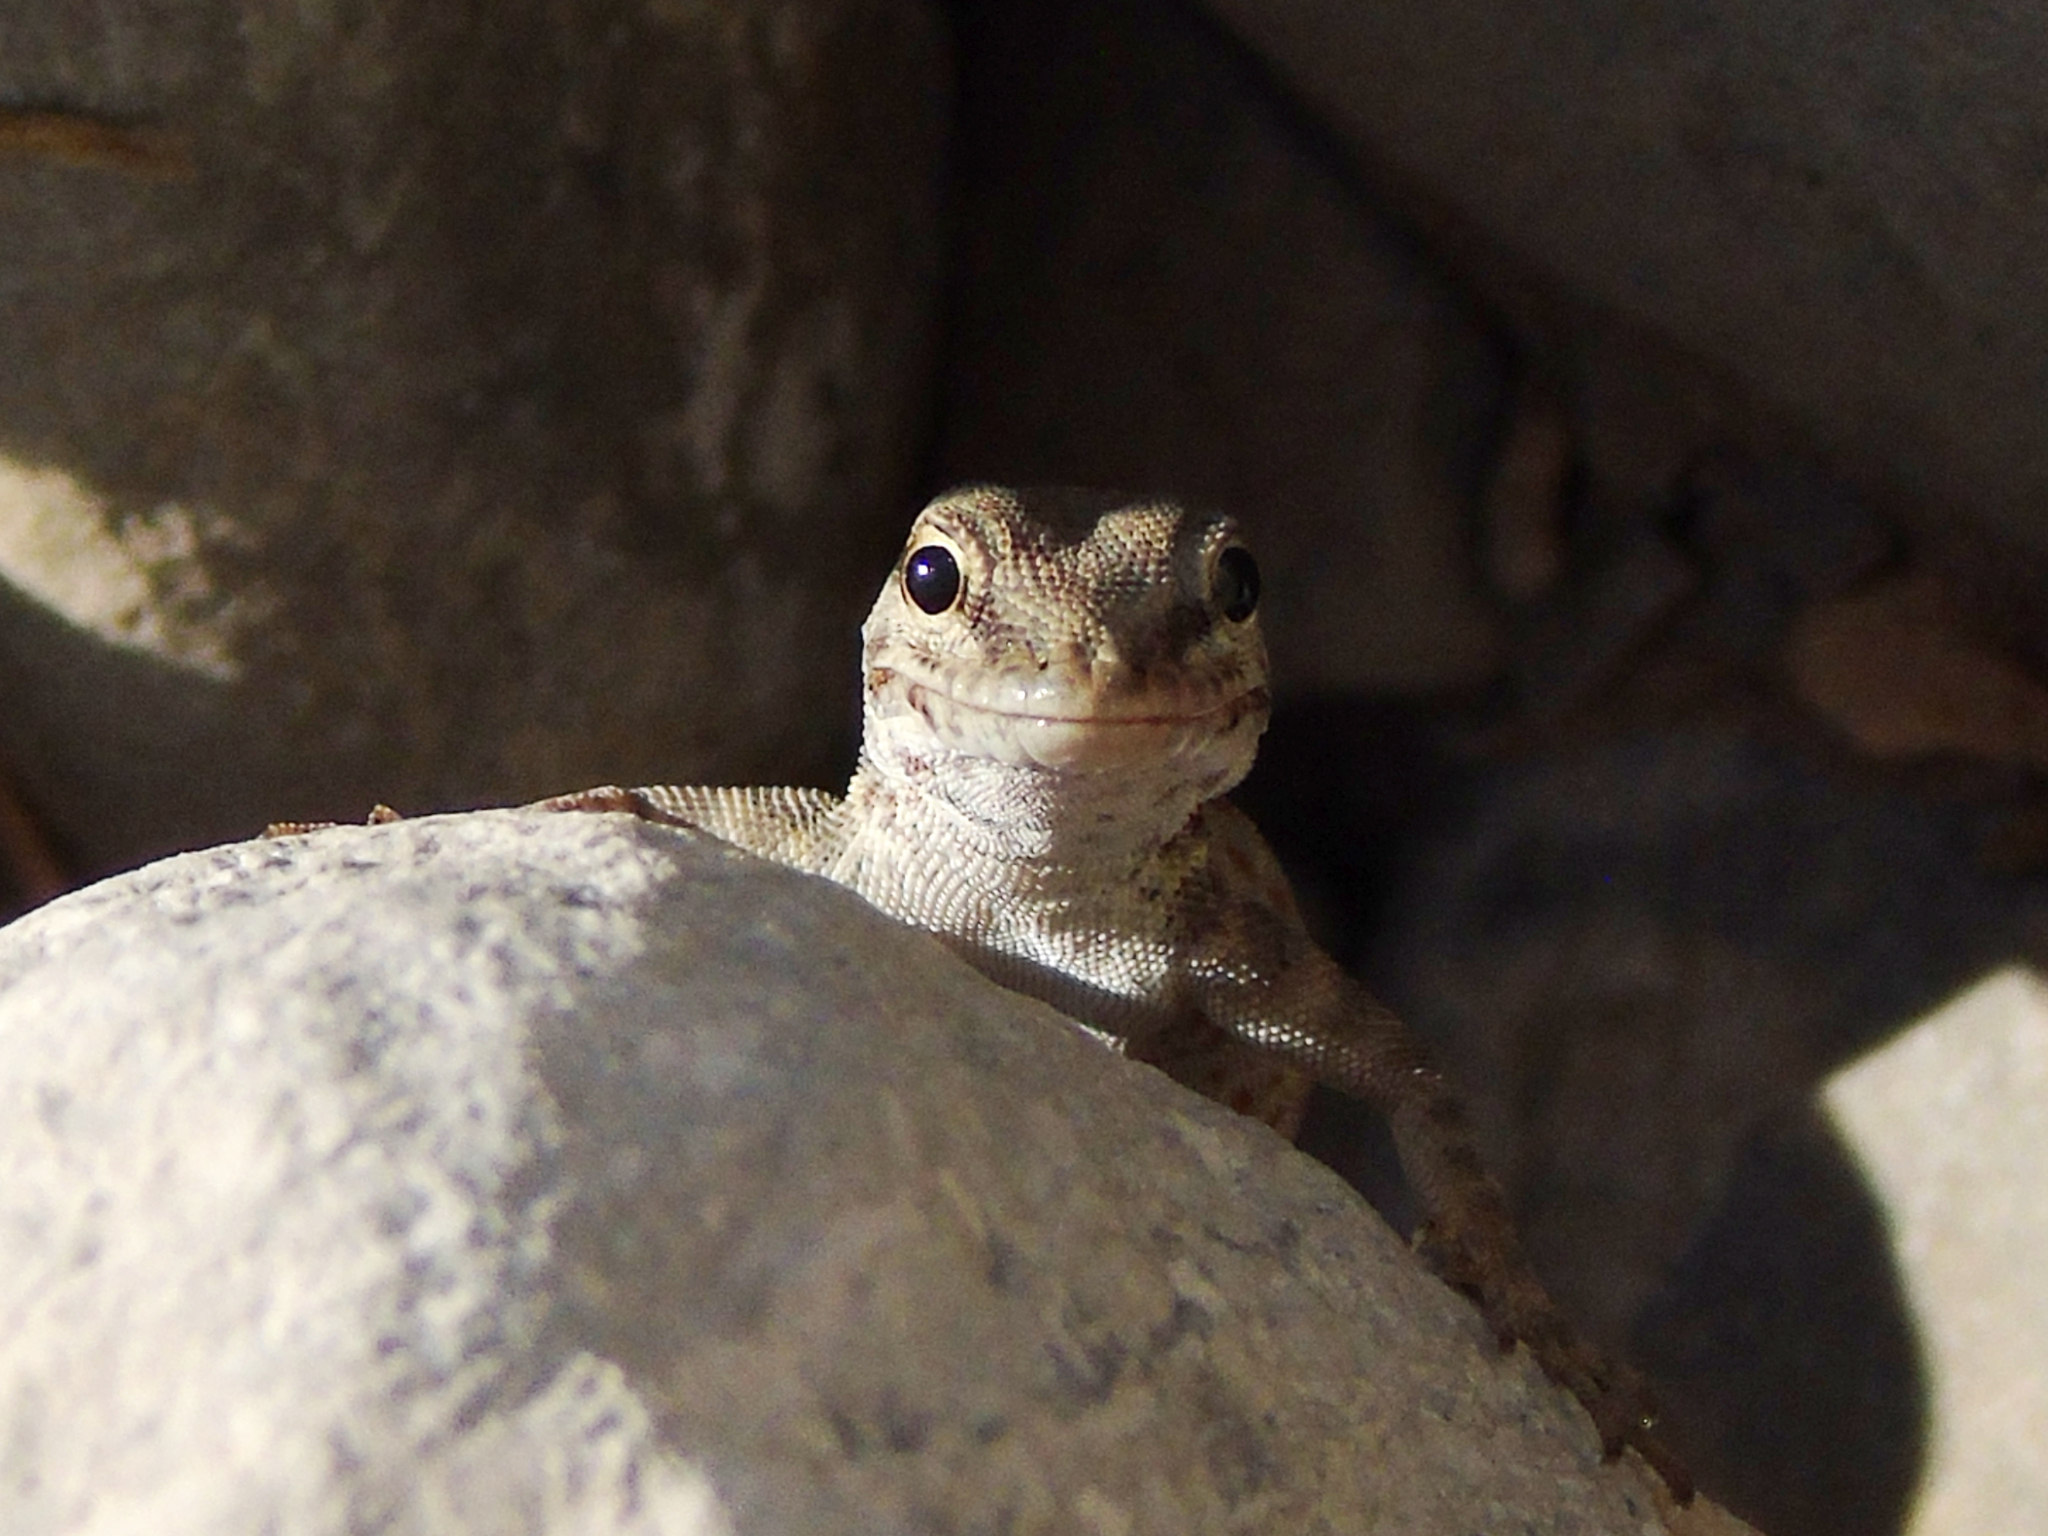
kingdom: Animalia
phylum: Chordata
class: Squamata
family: Sphaerodactylidae
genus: Pristurus
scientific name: Pristurus rupestris
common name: Blanford’s semaphore gecko
